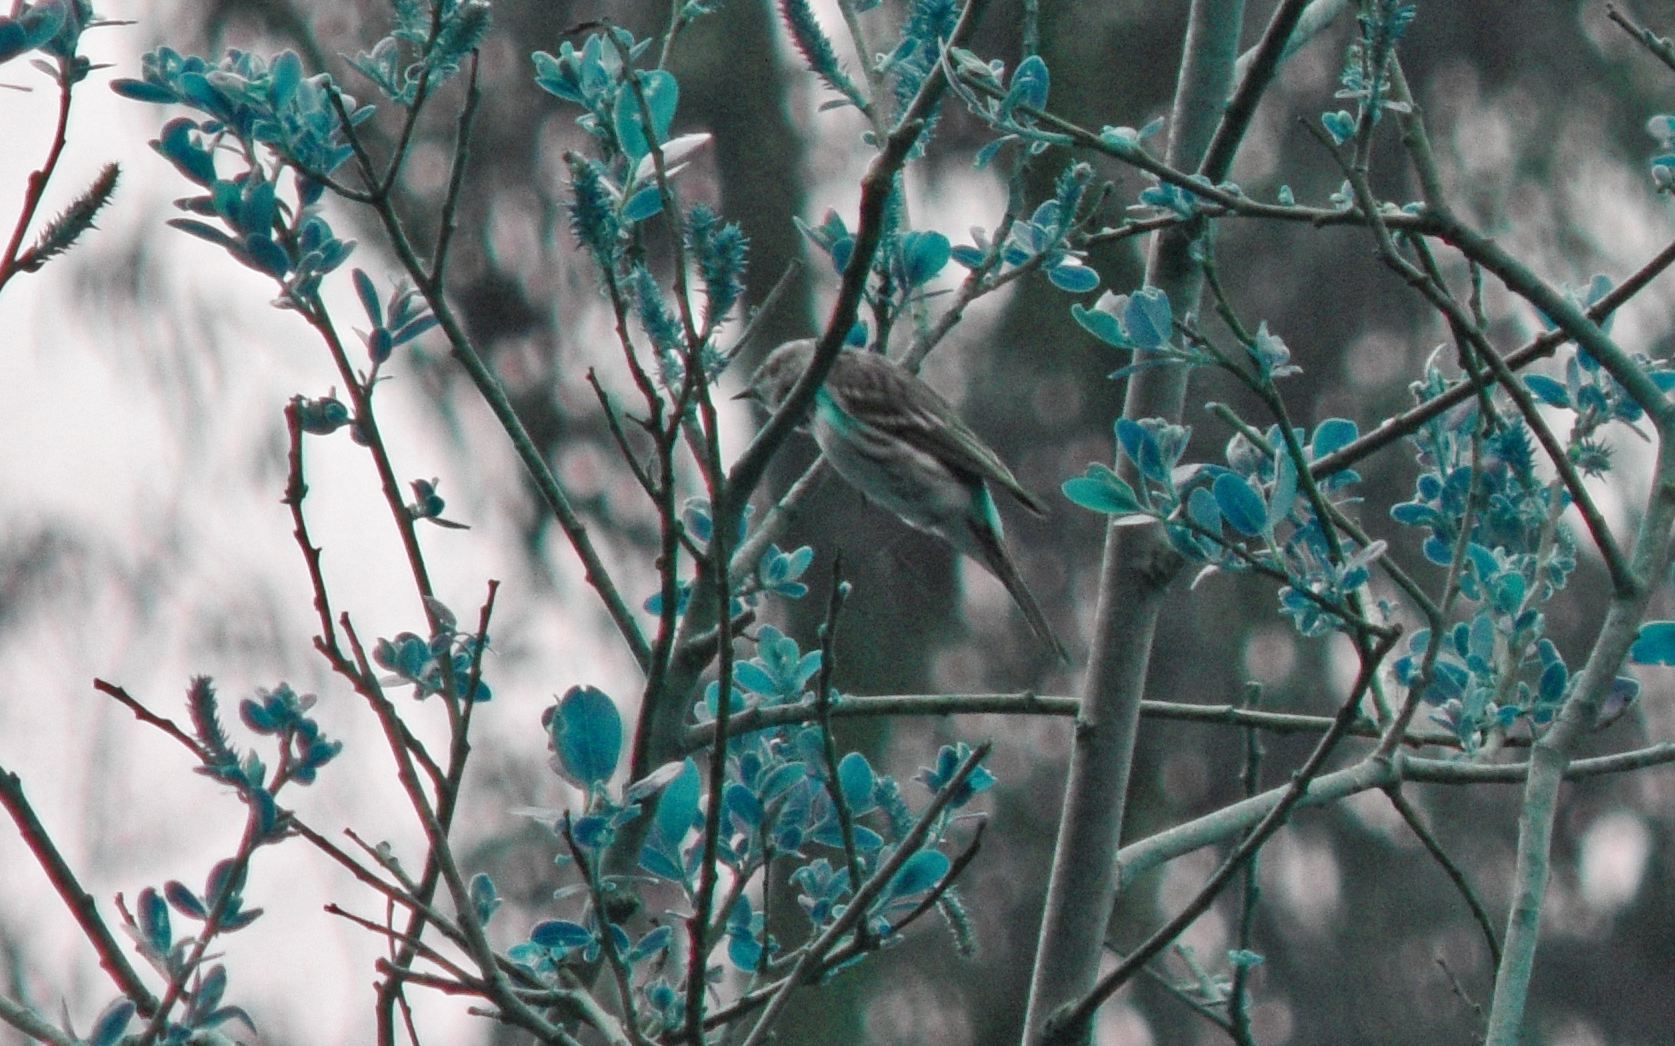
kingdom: Animalia
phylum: Chordata
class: Aves
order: Passeriformes
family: Parulidae
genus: Setophaga
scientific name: Setophaga coronata
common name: Myrtle warbler
